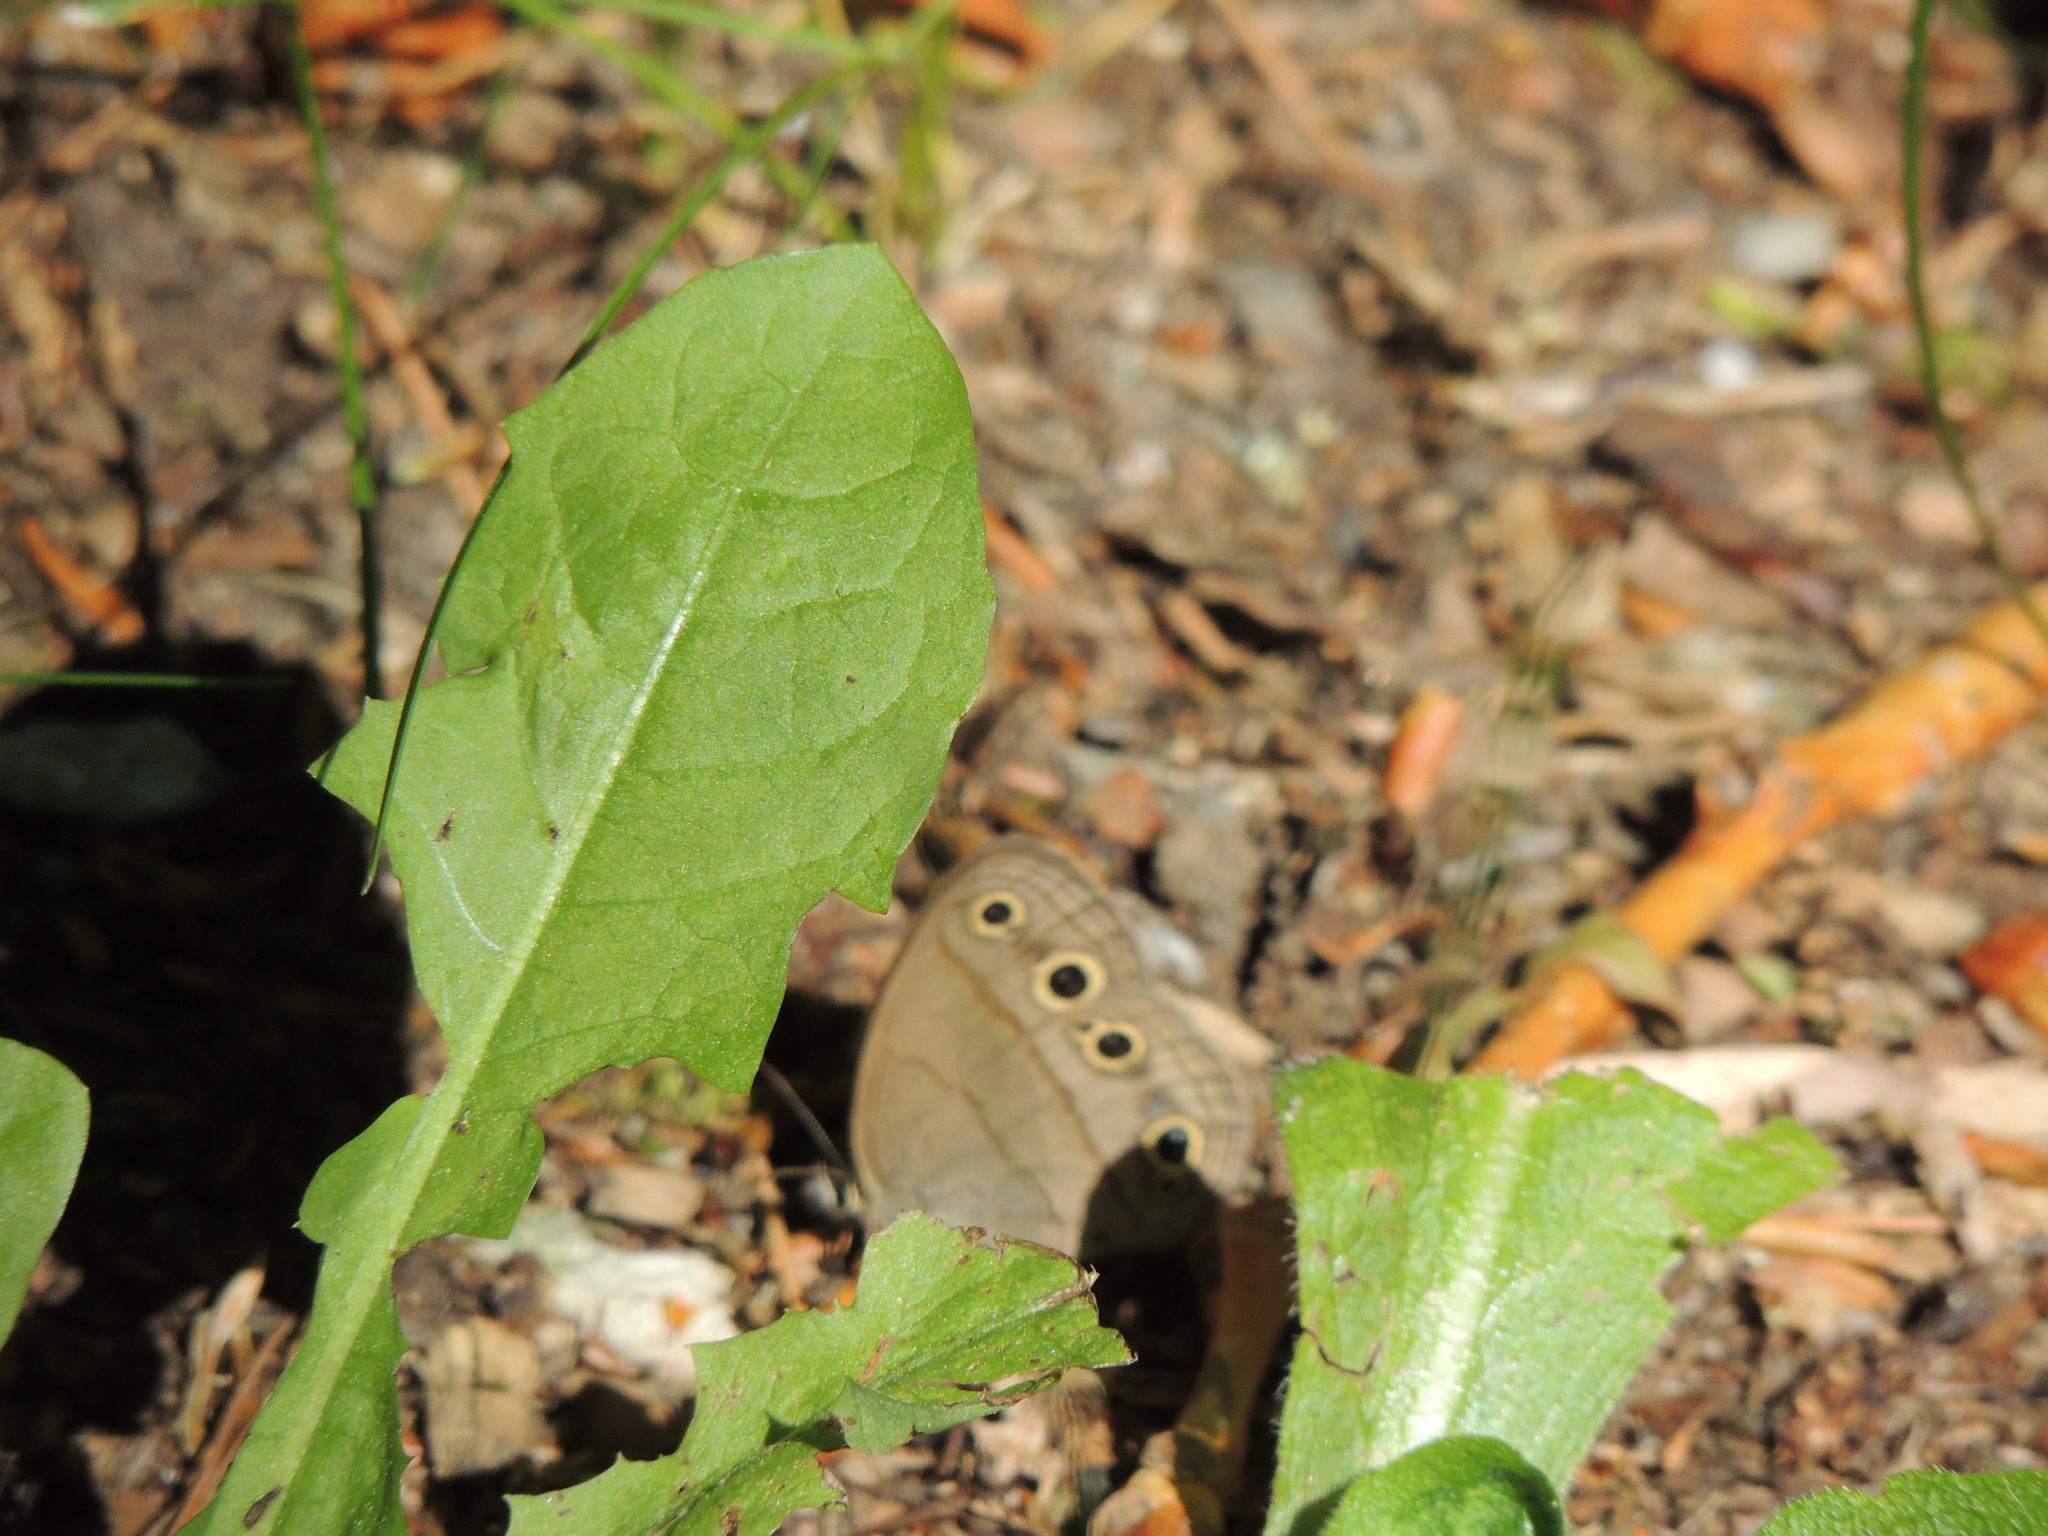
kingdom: Animalia
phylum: Arthropoda
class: Insecta
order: Lepidoptera
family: Nymphalidae
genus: Euptychia
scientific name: Euptychia cymela
